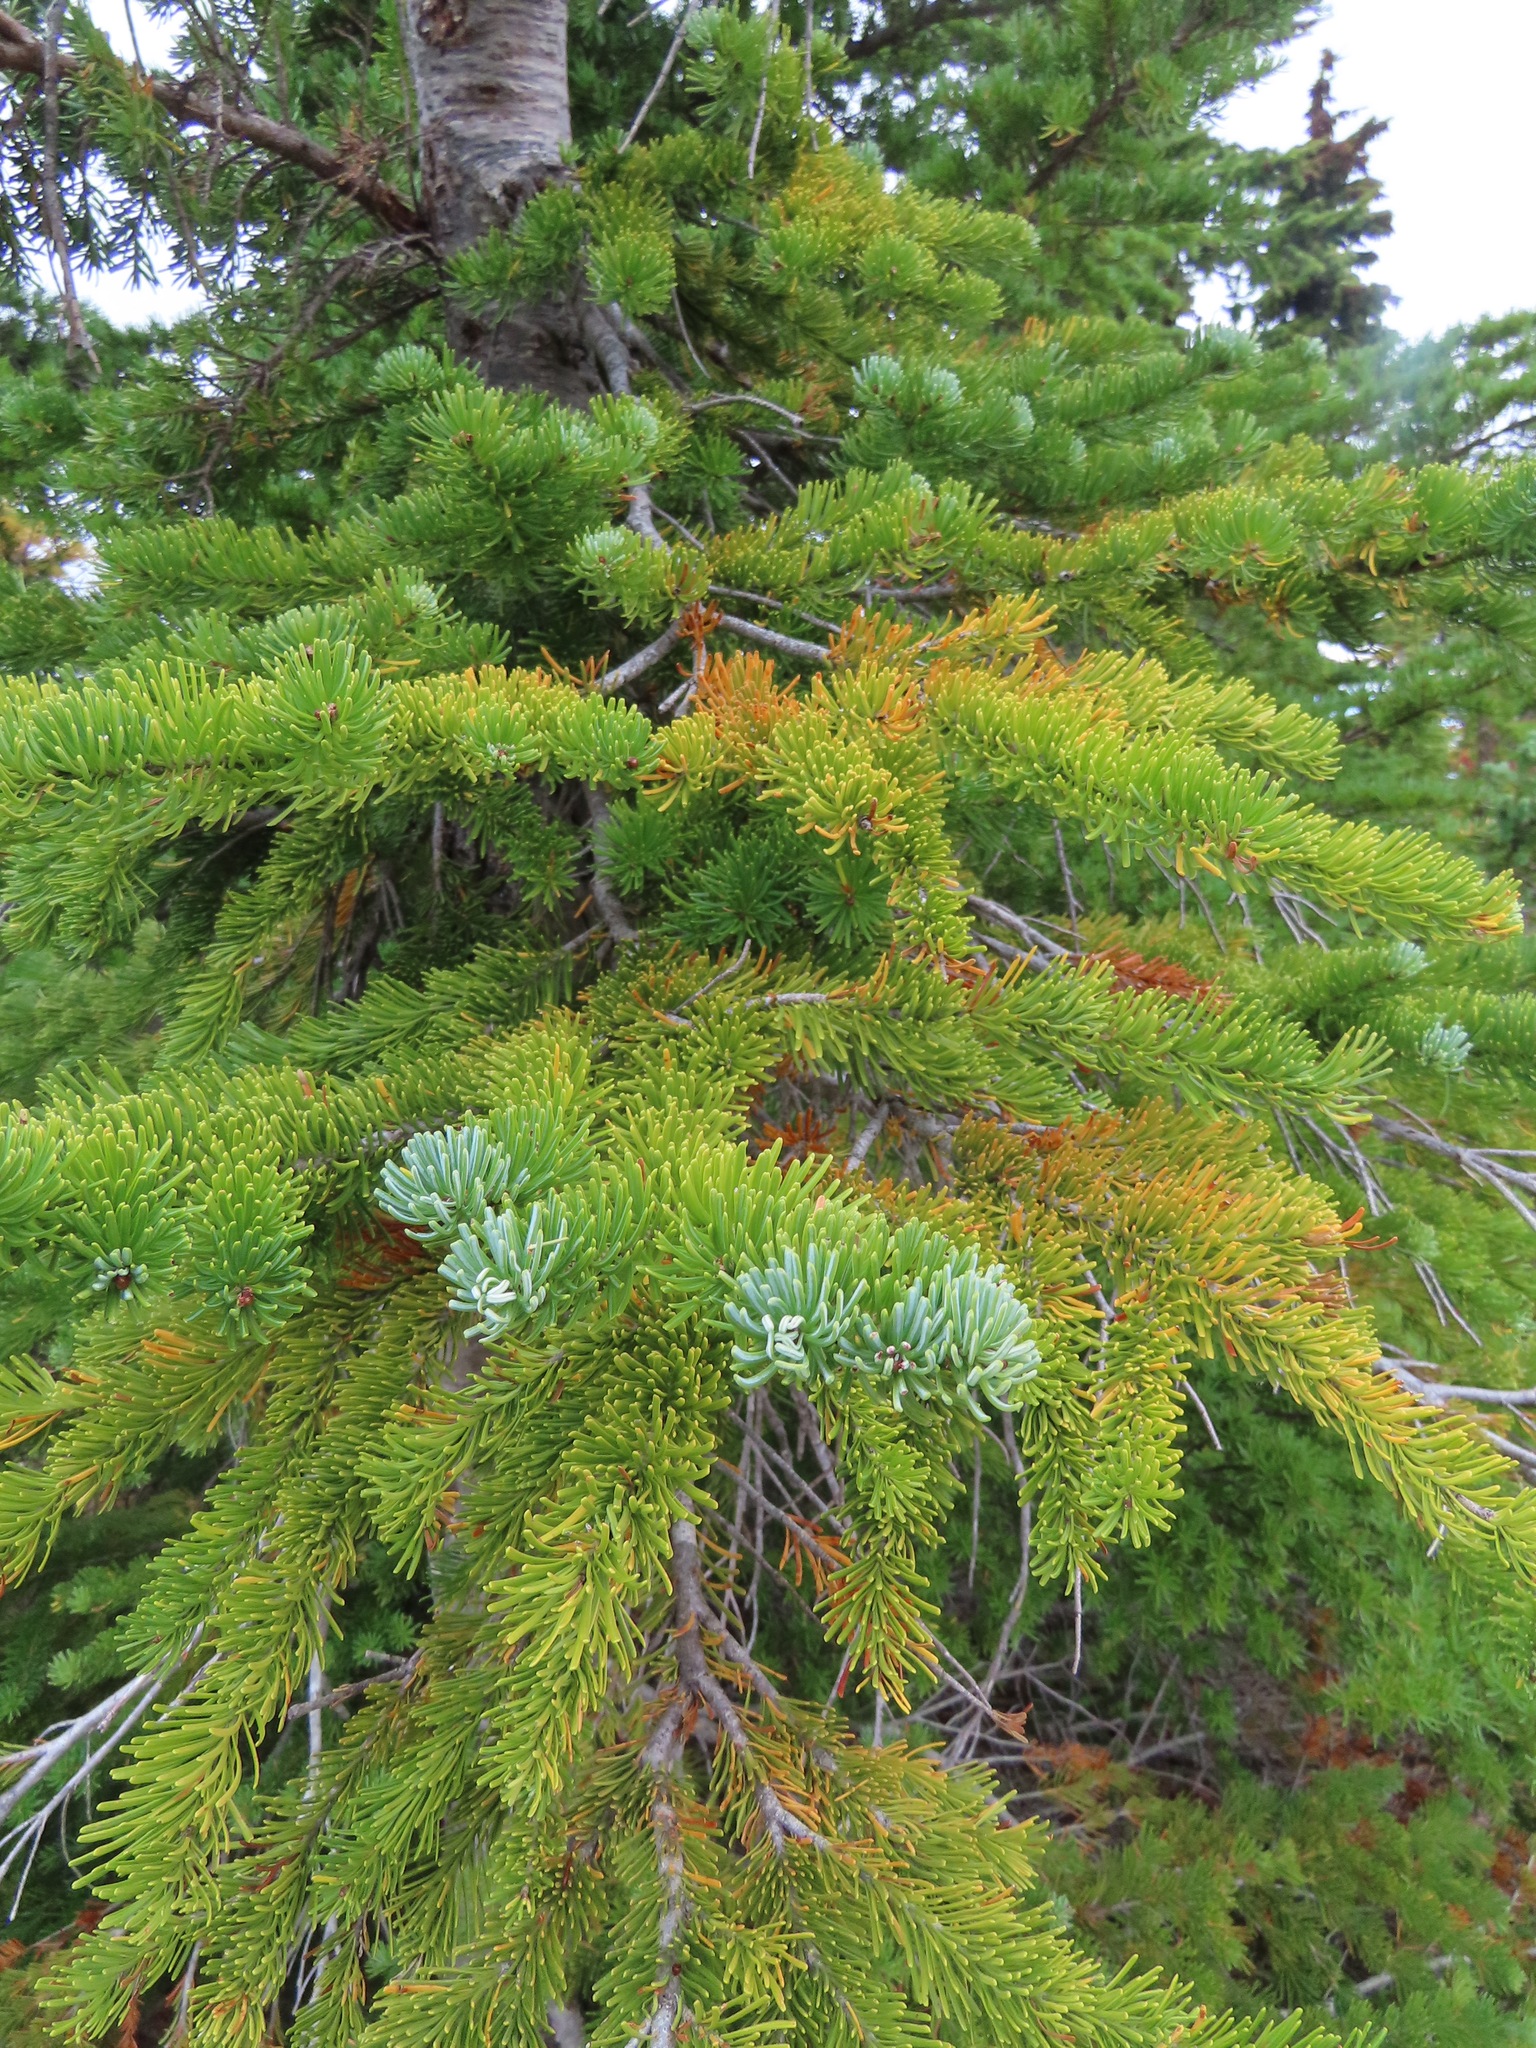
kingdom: Plantae
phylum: Tracheophyta
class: Pinopsida
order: Pinales
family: Pinaceae
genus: Abies
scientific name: Abies lasiocarpa
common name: Subalpine fir
